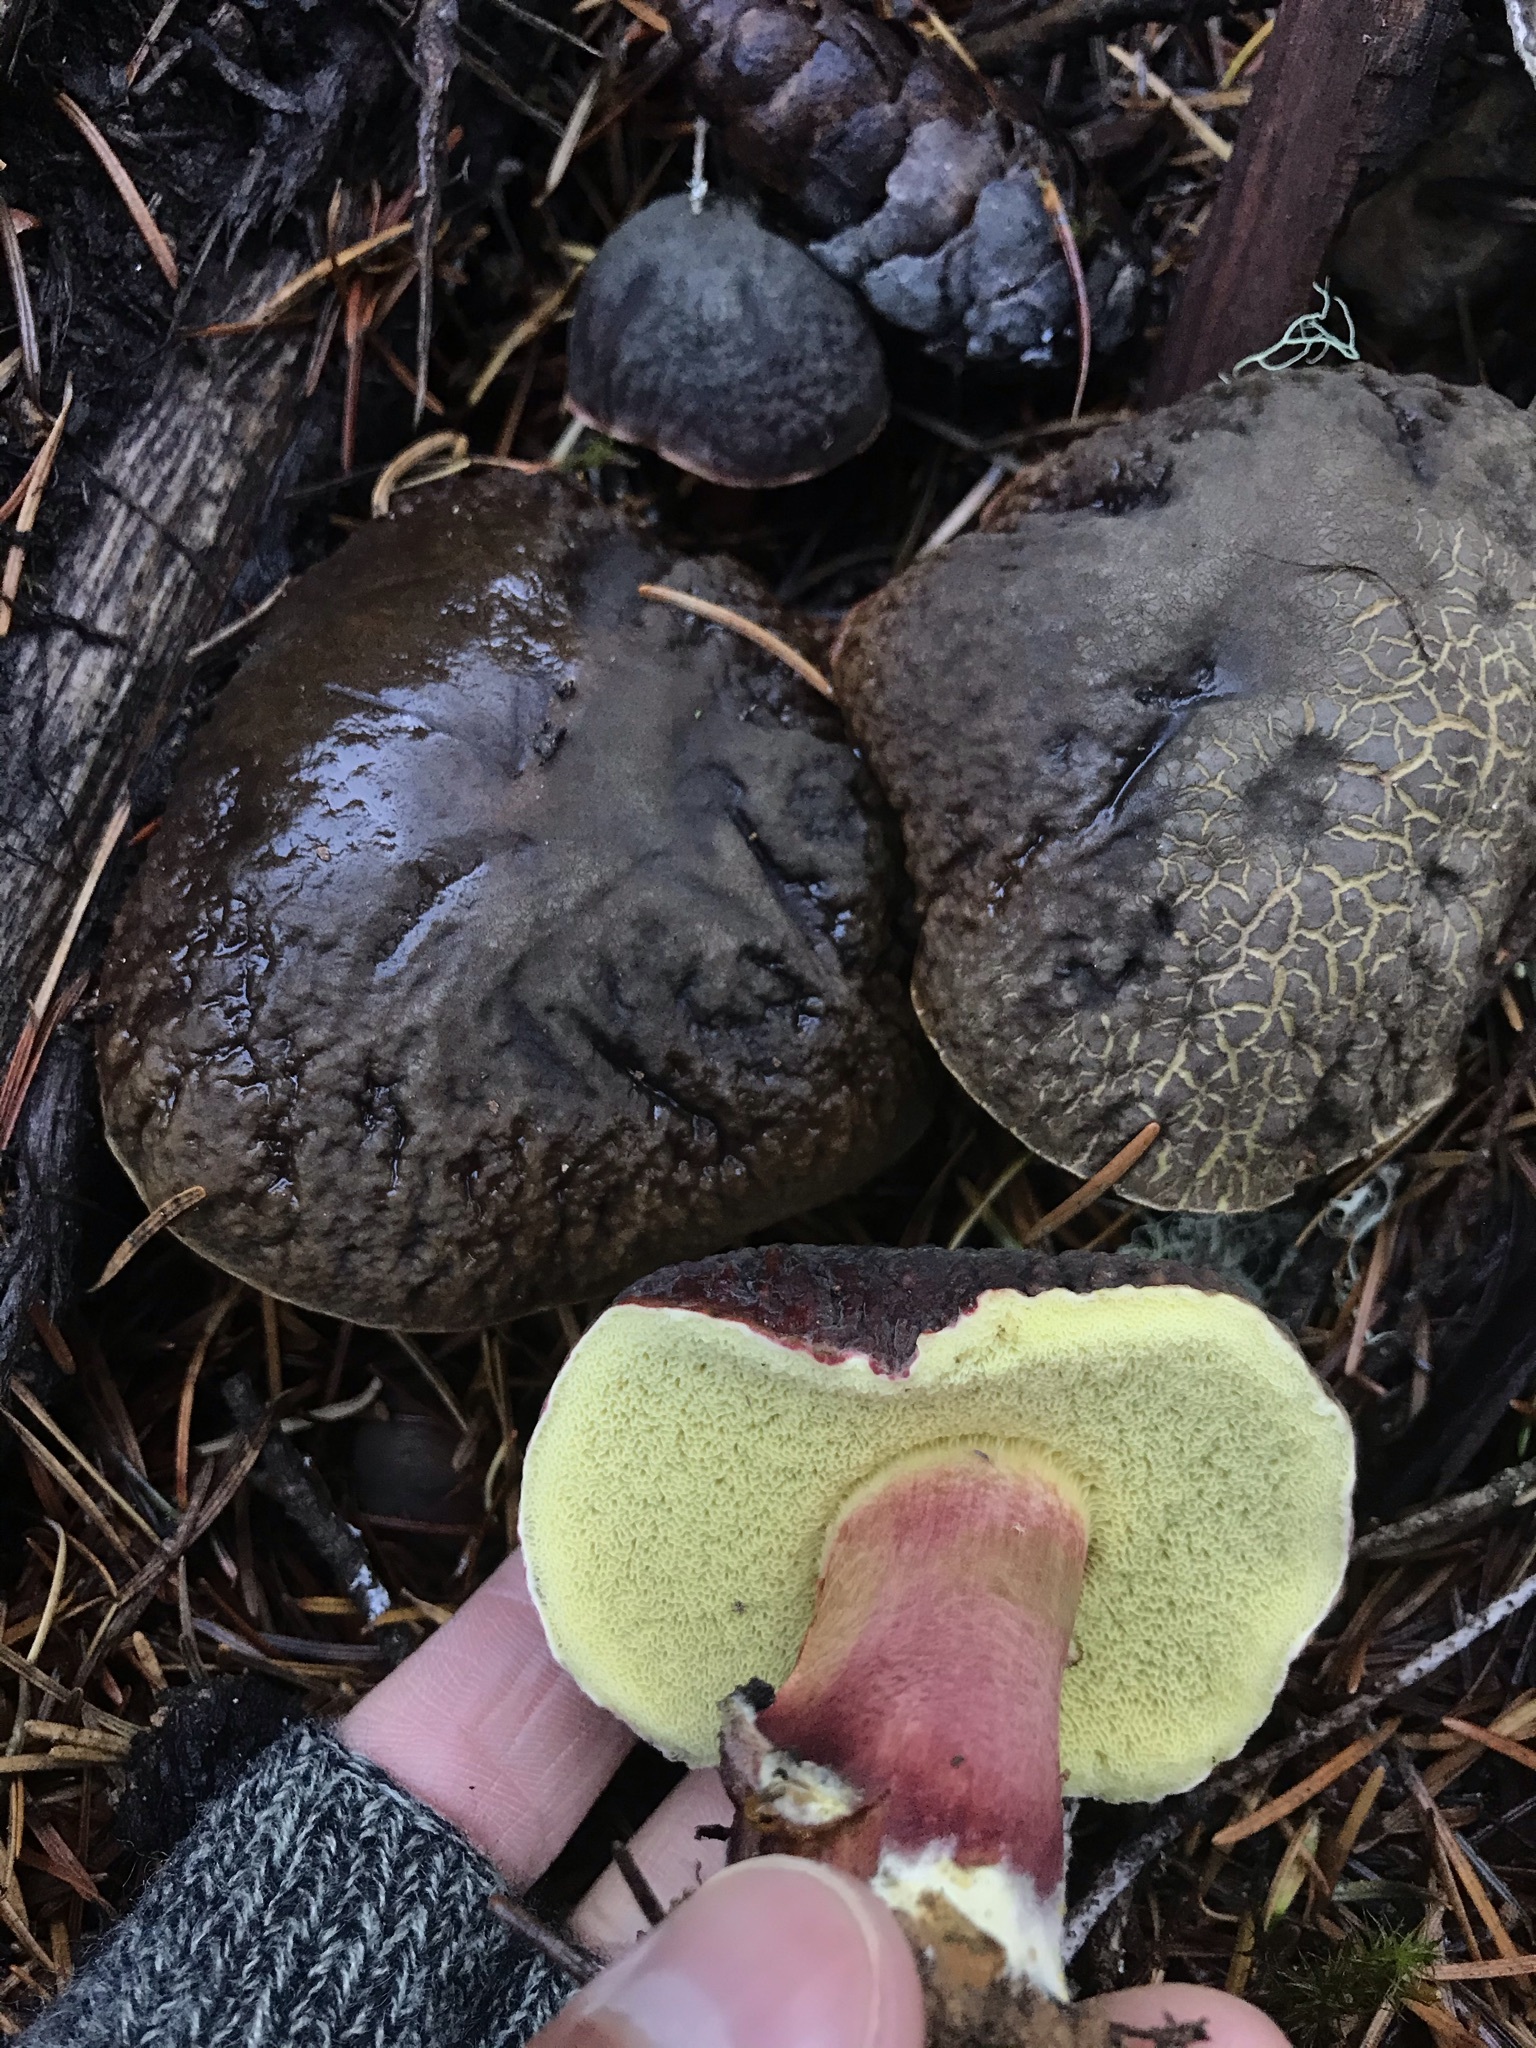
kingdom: Fungi
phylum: Basidiomycota
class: Agaricomycetes
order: Boletales
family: Boletaceae
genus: Xerocomellus
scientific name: Xerocomellus atropurpureus
